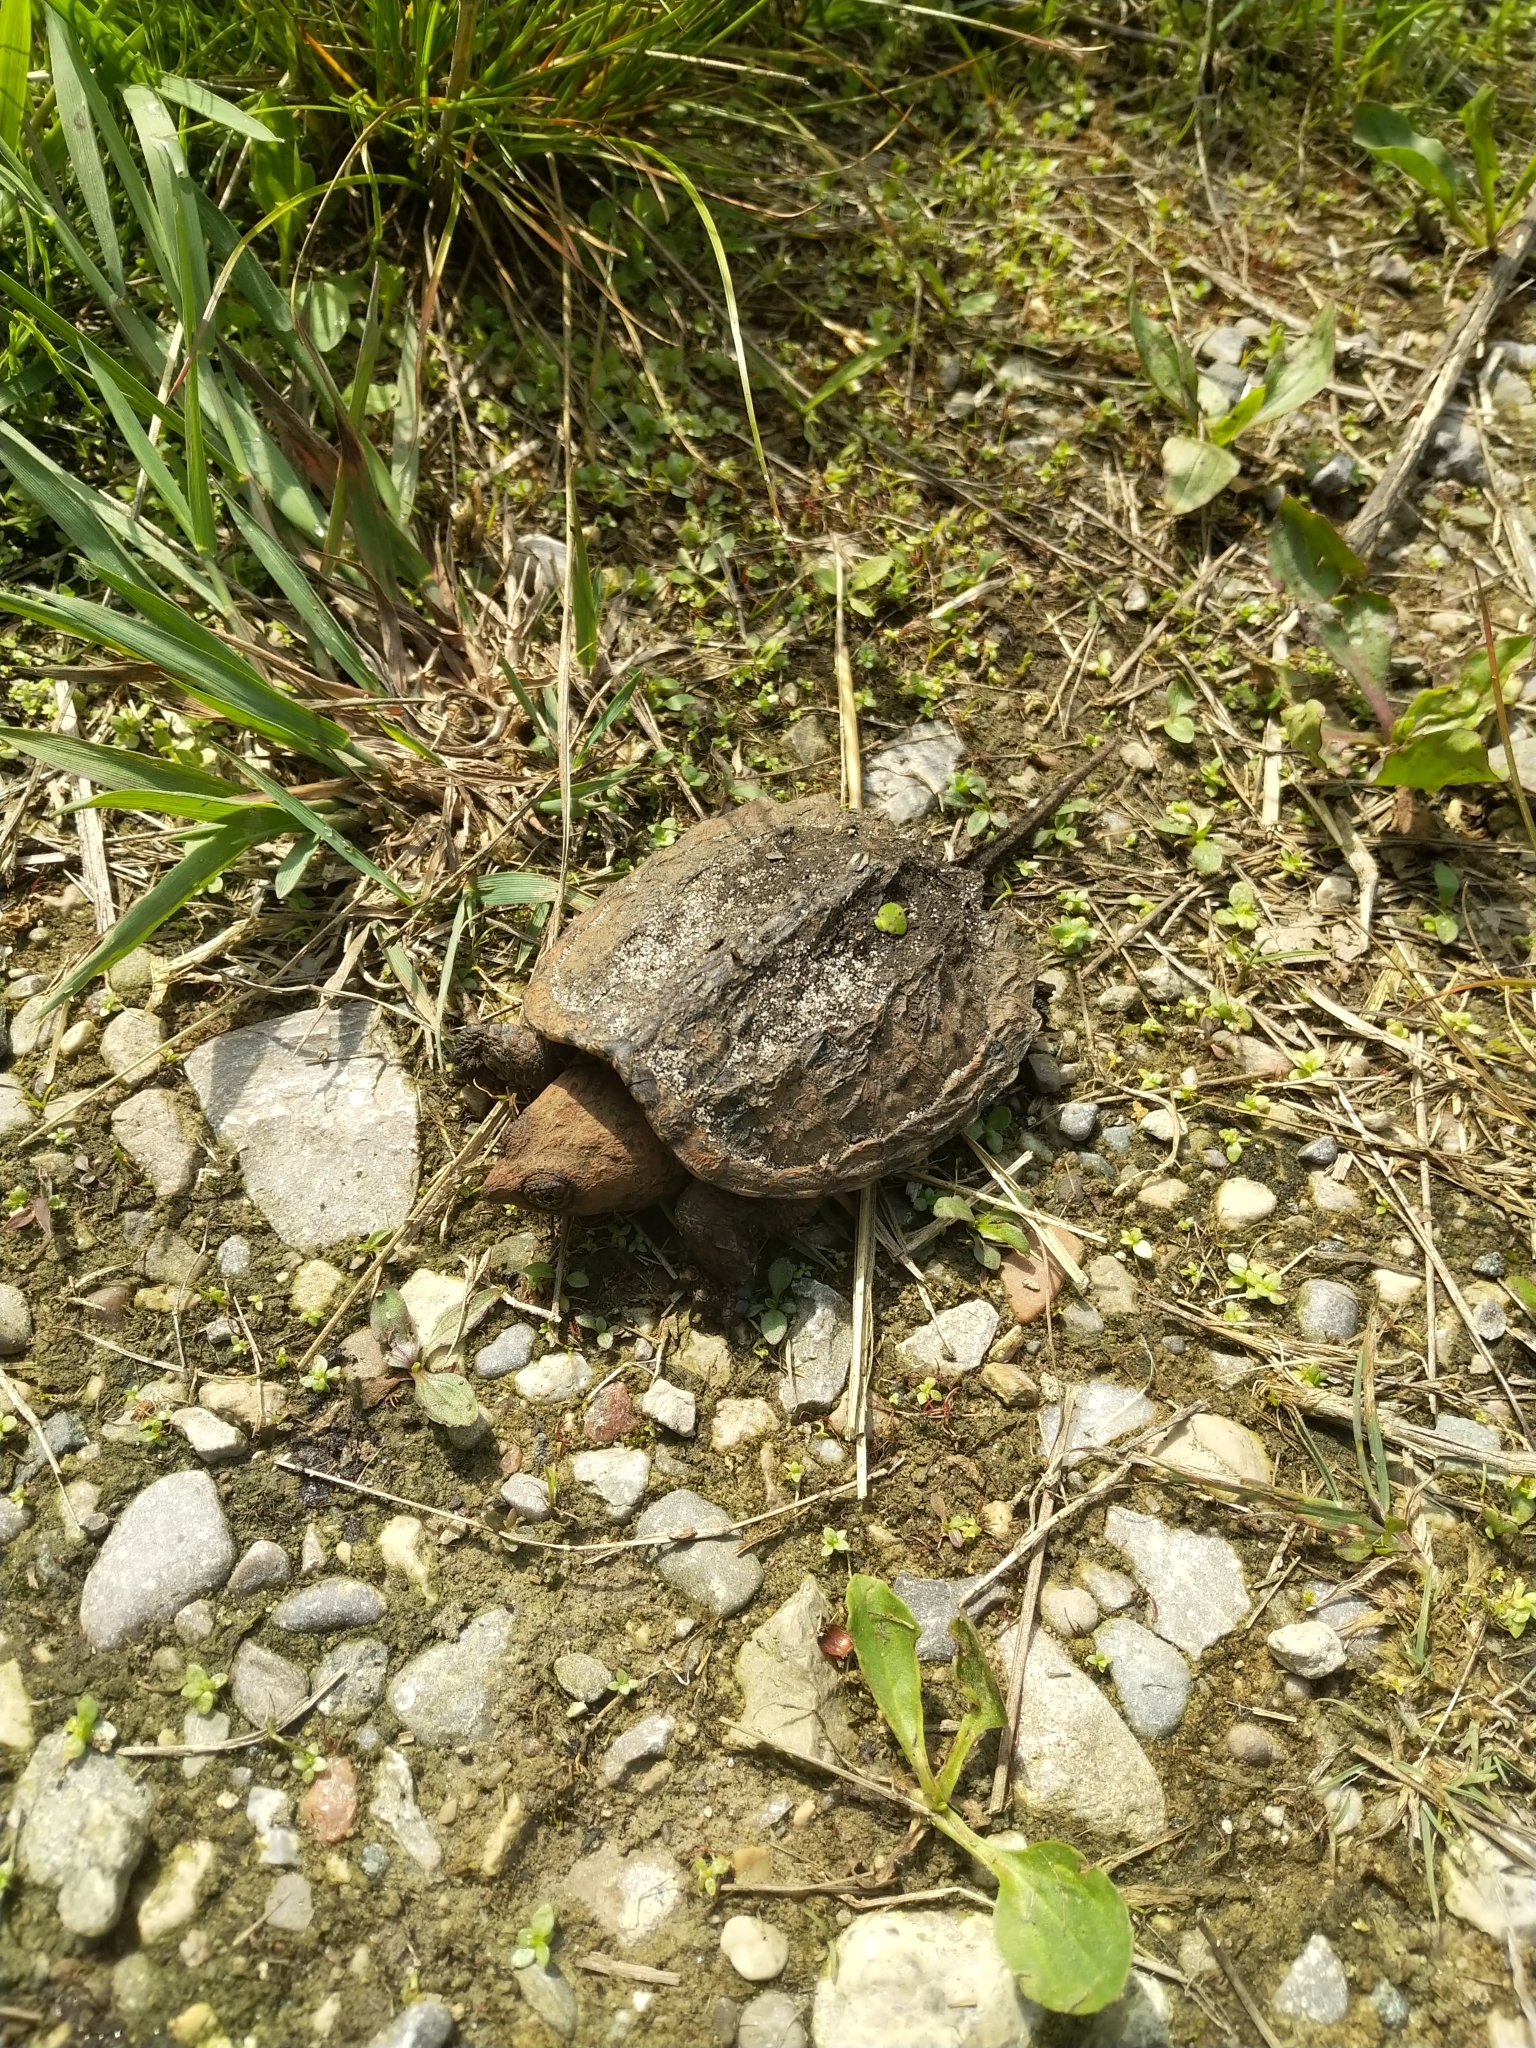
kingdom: Animalia
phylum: Chordata
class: Testudines
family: Chelydridae
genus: Chelydra
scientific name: Chelydra serpentina
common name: Common snapping turtle
